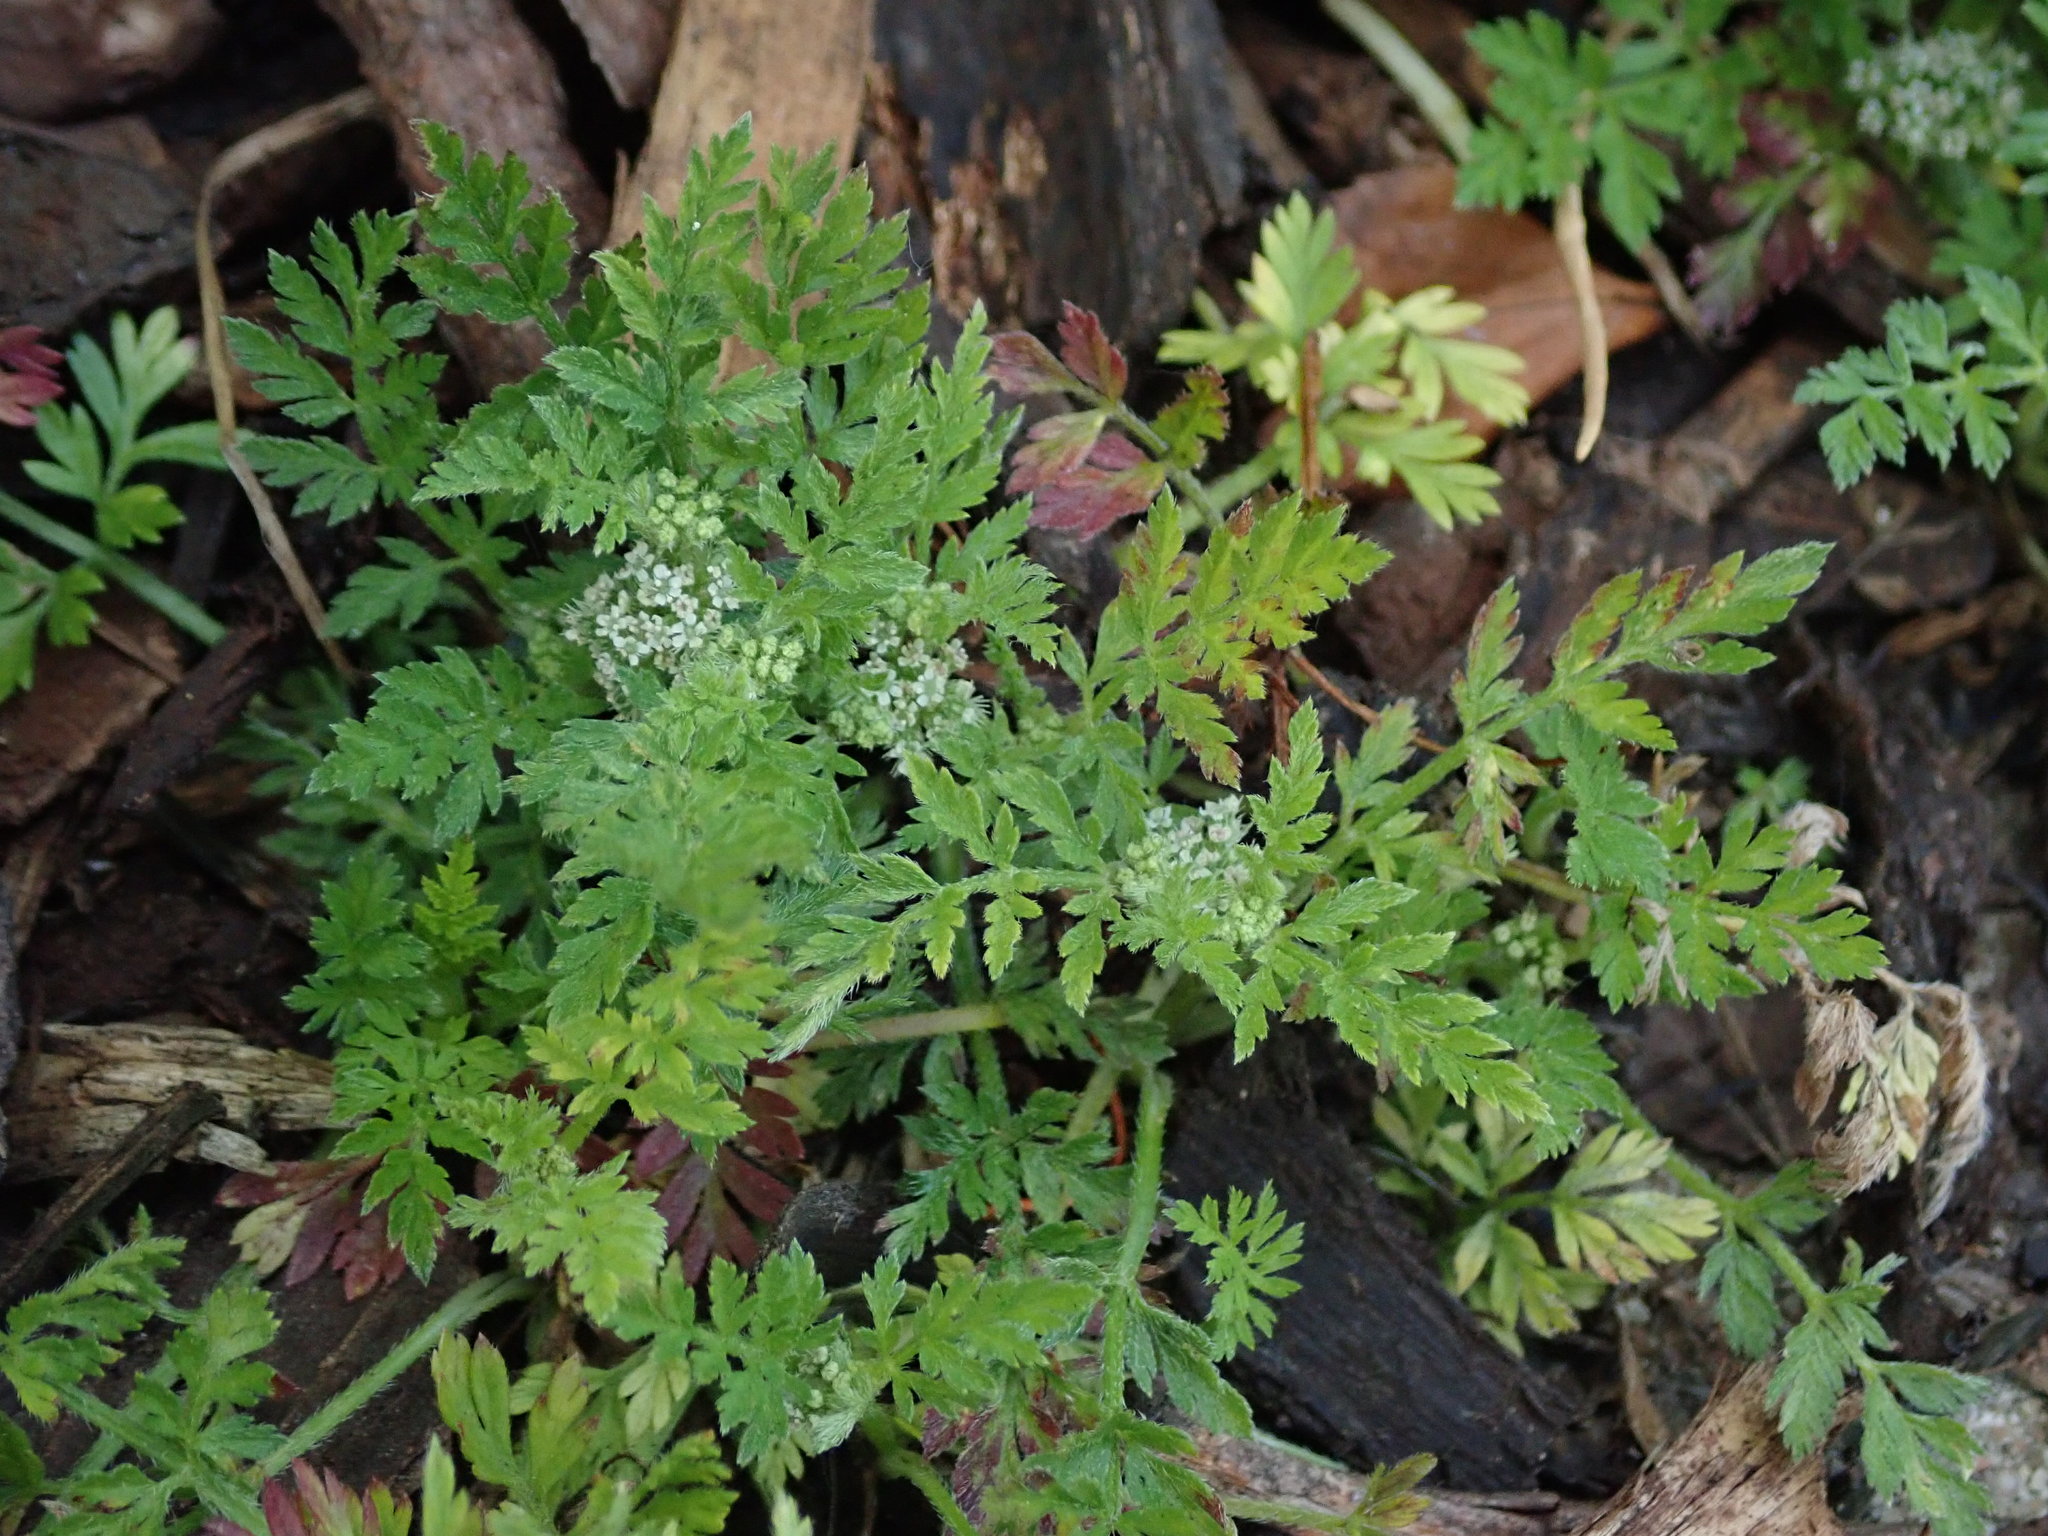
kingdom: Plantae
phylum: Tracheophyta
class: Magnoliopsida
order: Apiales
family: Apiaceae
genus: Torilis
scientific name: Torilis nodosa
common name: Knotted hedge-parsley
